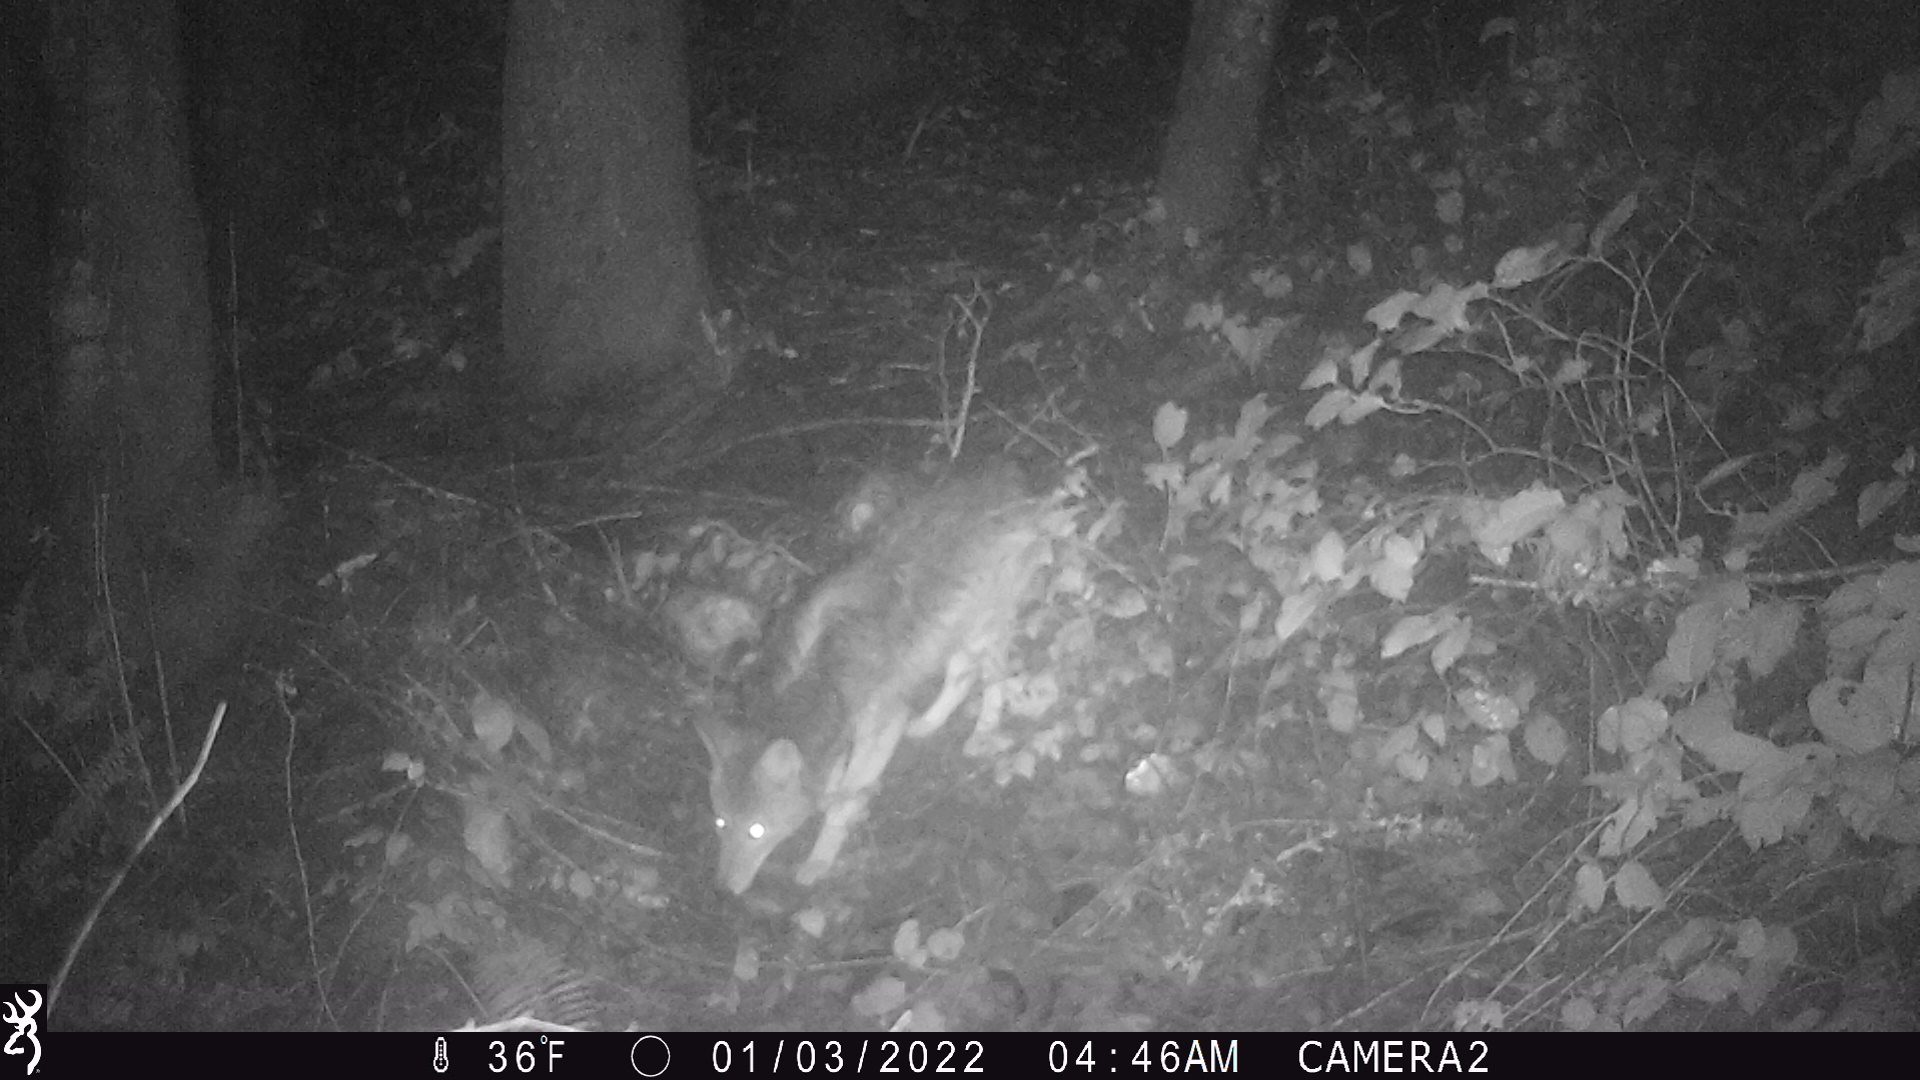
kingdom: Animalia
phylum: Chordata
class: Mammalia
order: Carnivora
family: Canidae
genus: Canis
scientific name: Canis latrans
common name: Coyote
